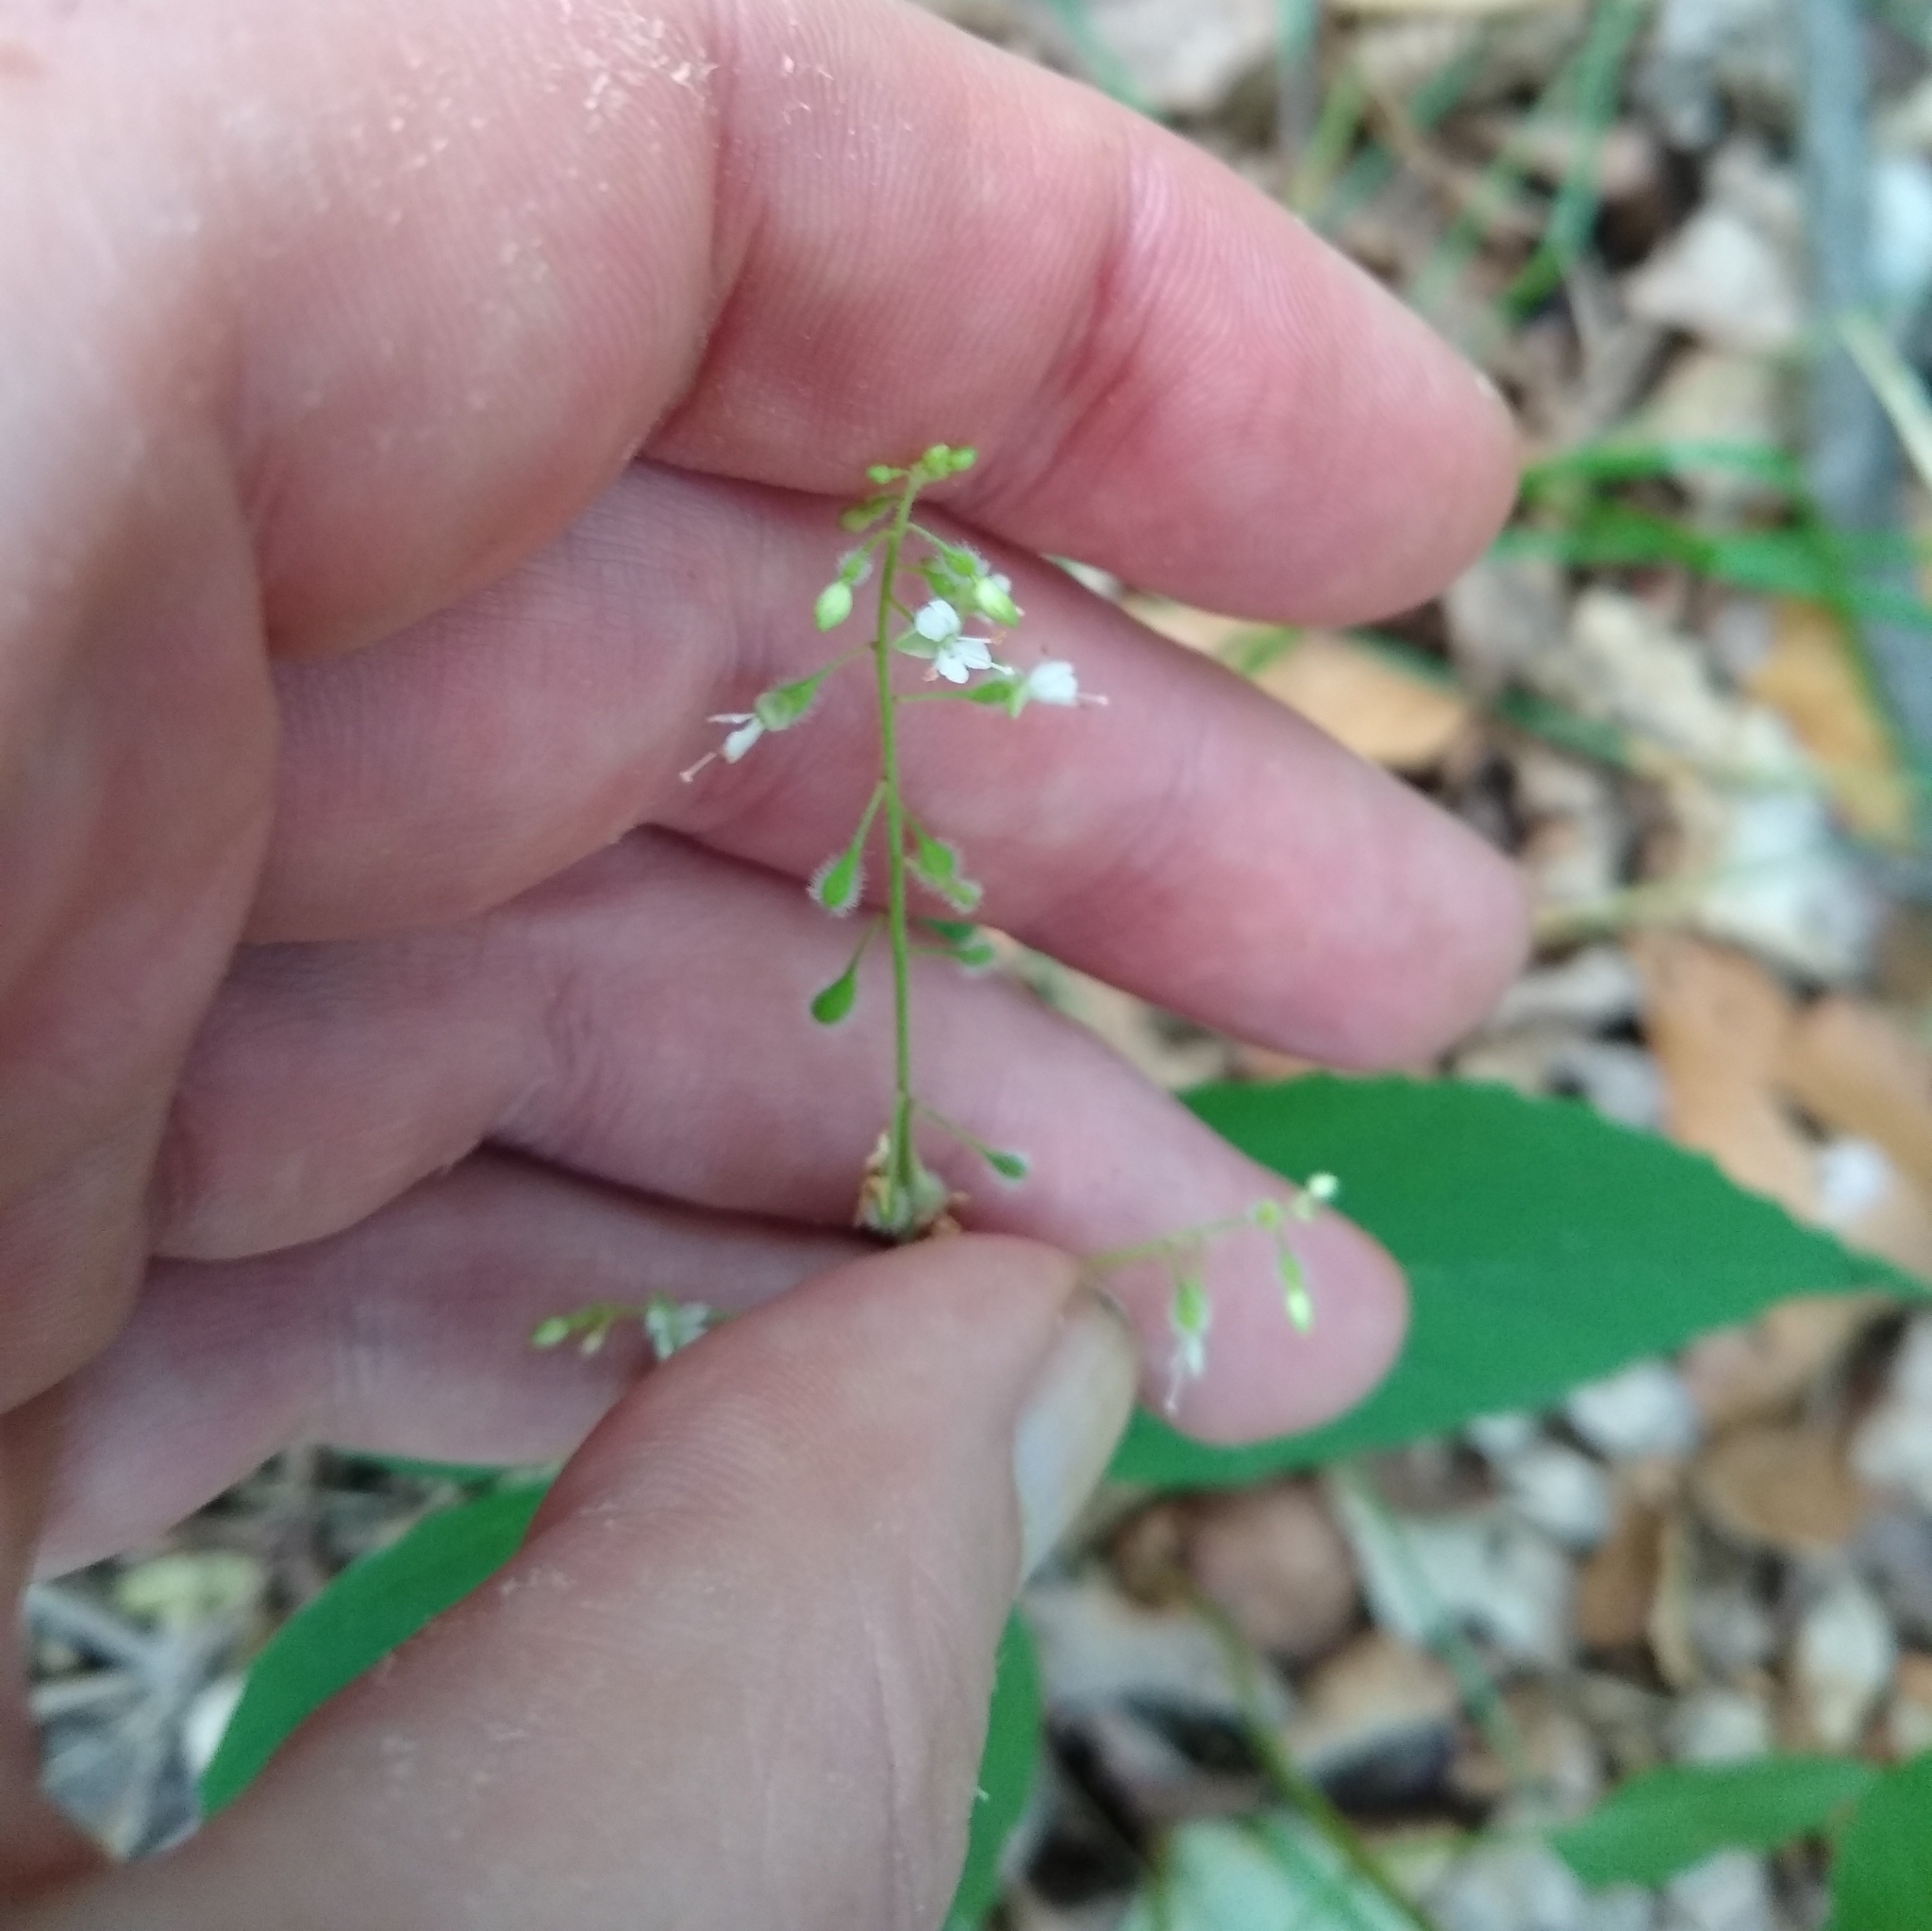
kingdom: Plantae
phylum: Tracheophyta
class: Magnoliopsida
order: Myrtales
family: Onagraceae
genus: Circaea
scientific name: Circaea canadensis
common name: Broad-leaved enchanter's nightshade
